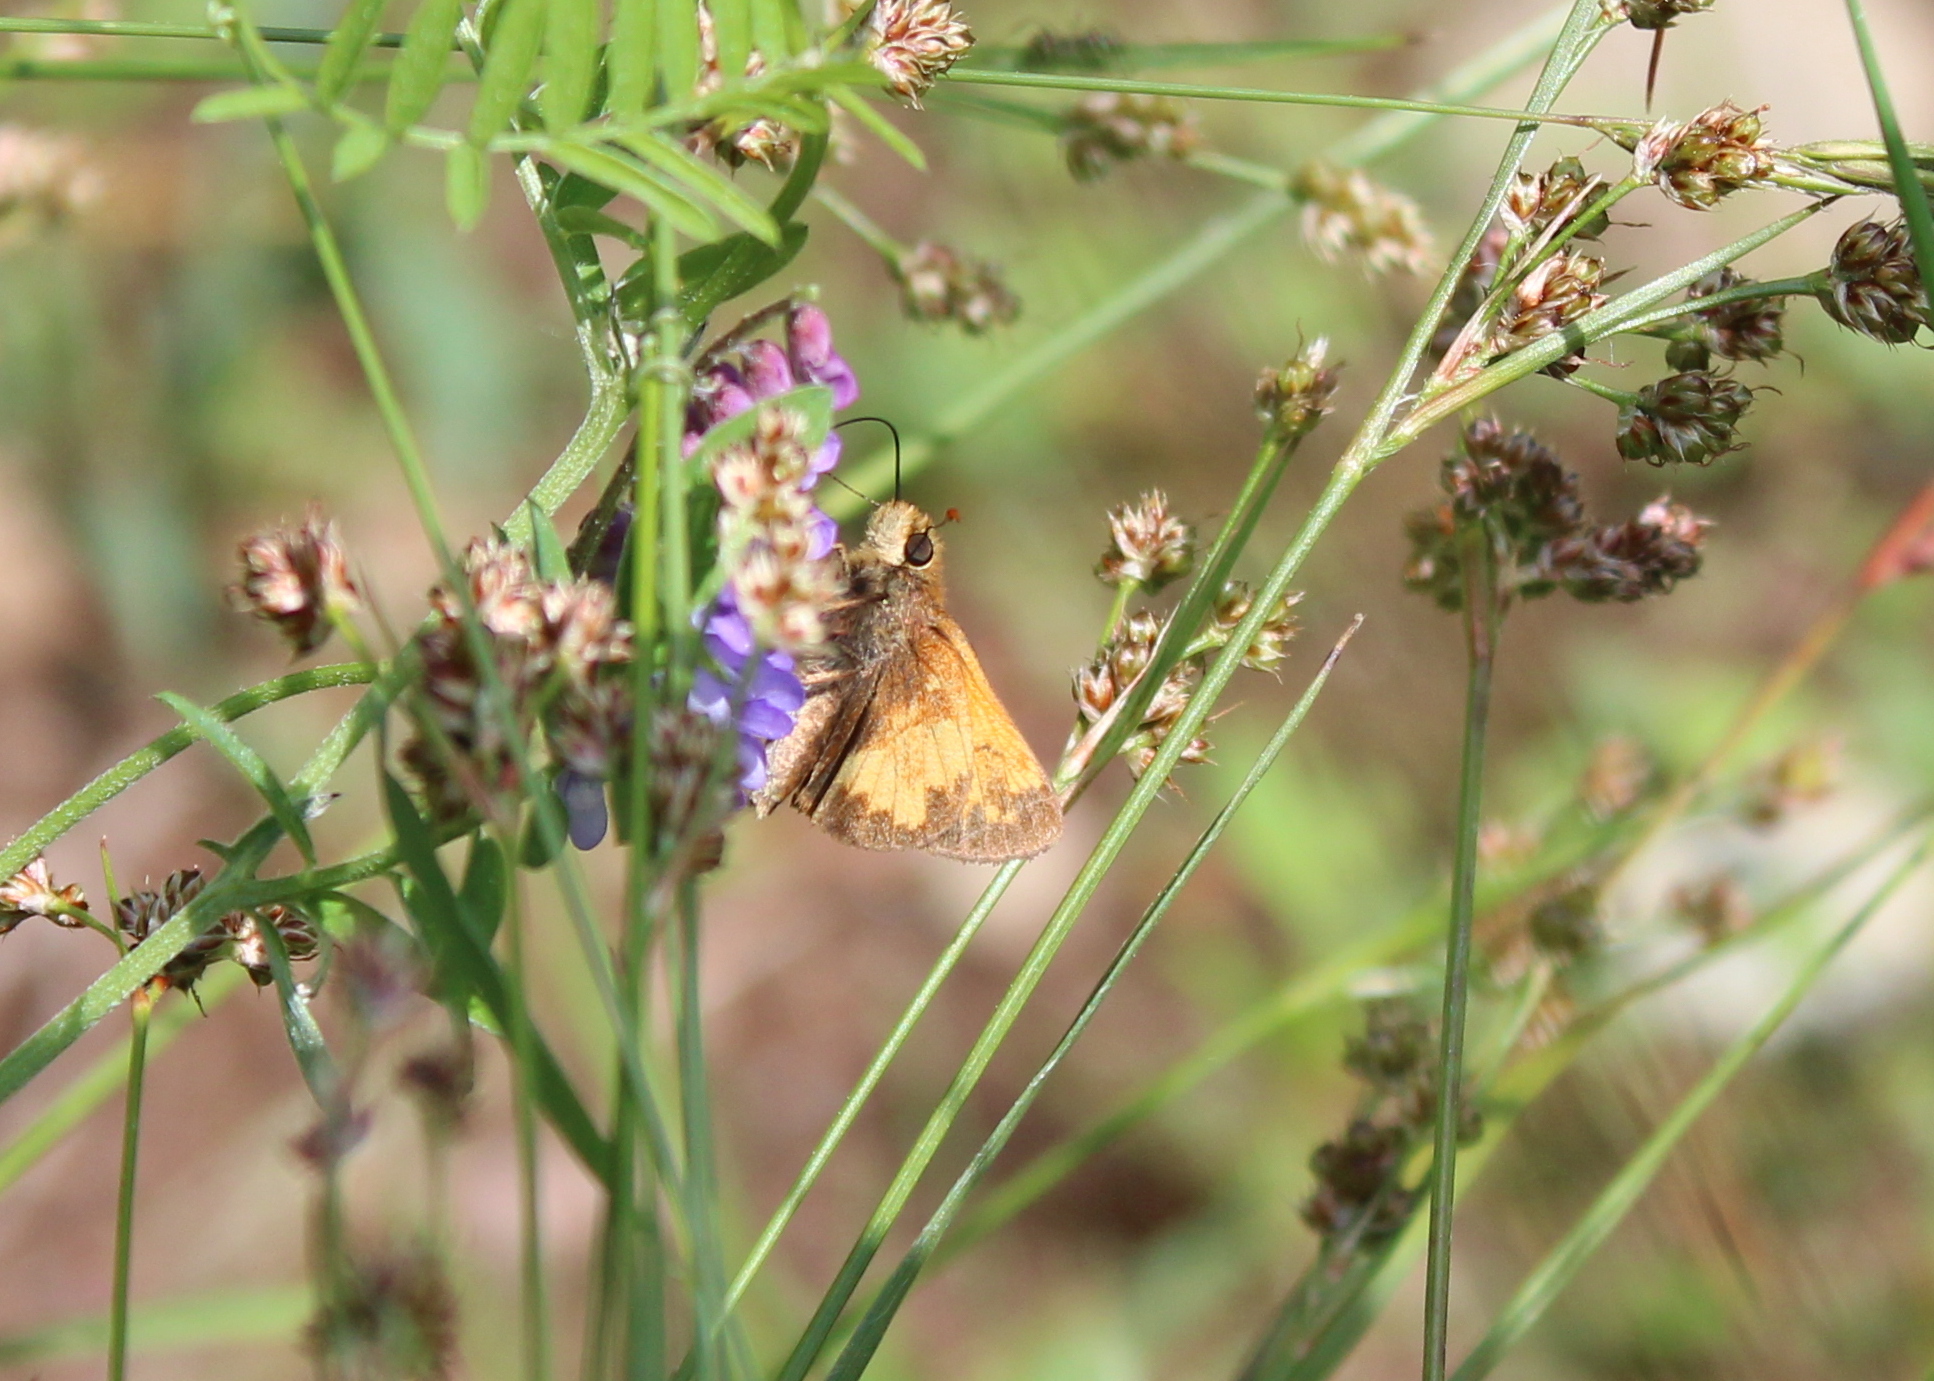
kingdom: Animalia
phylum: Arthropoda
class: Insecta
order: Lepidoptera
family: Hesperiidae
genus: Lon
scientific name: Lon hobomok
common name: Hobomok skipper
